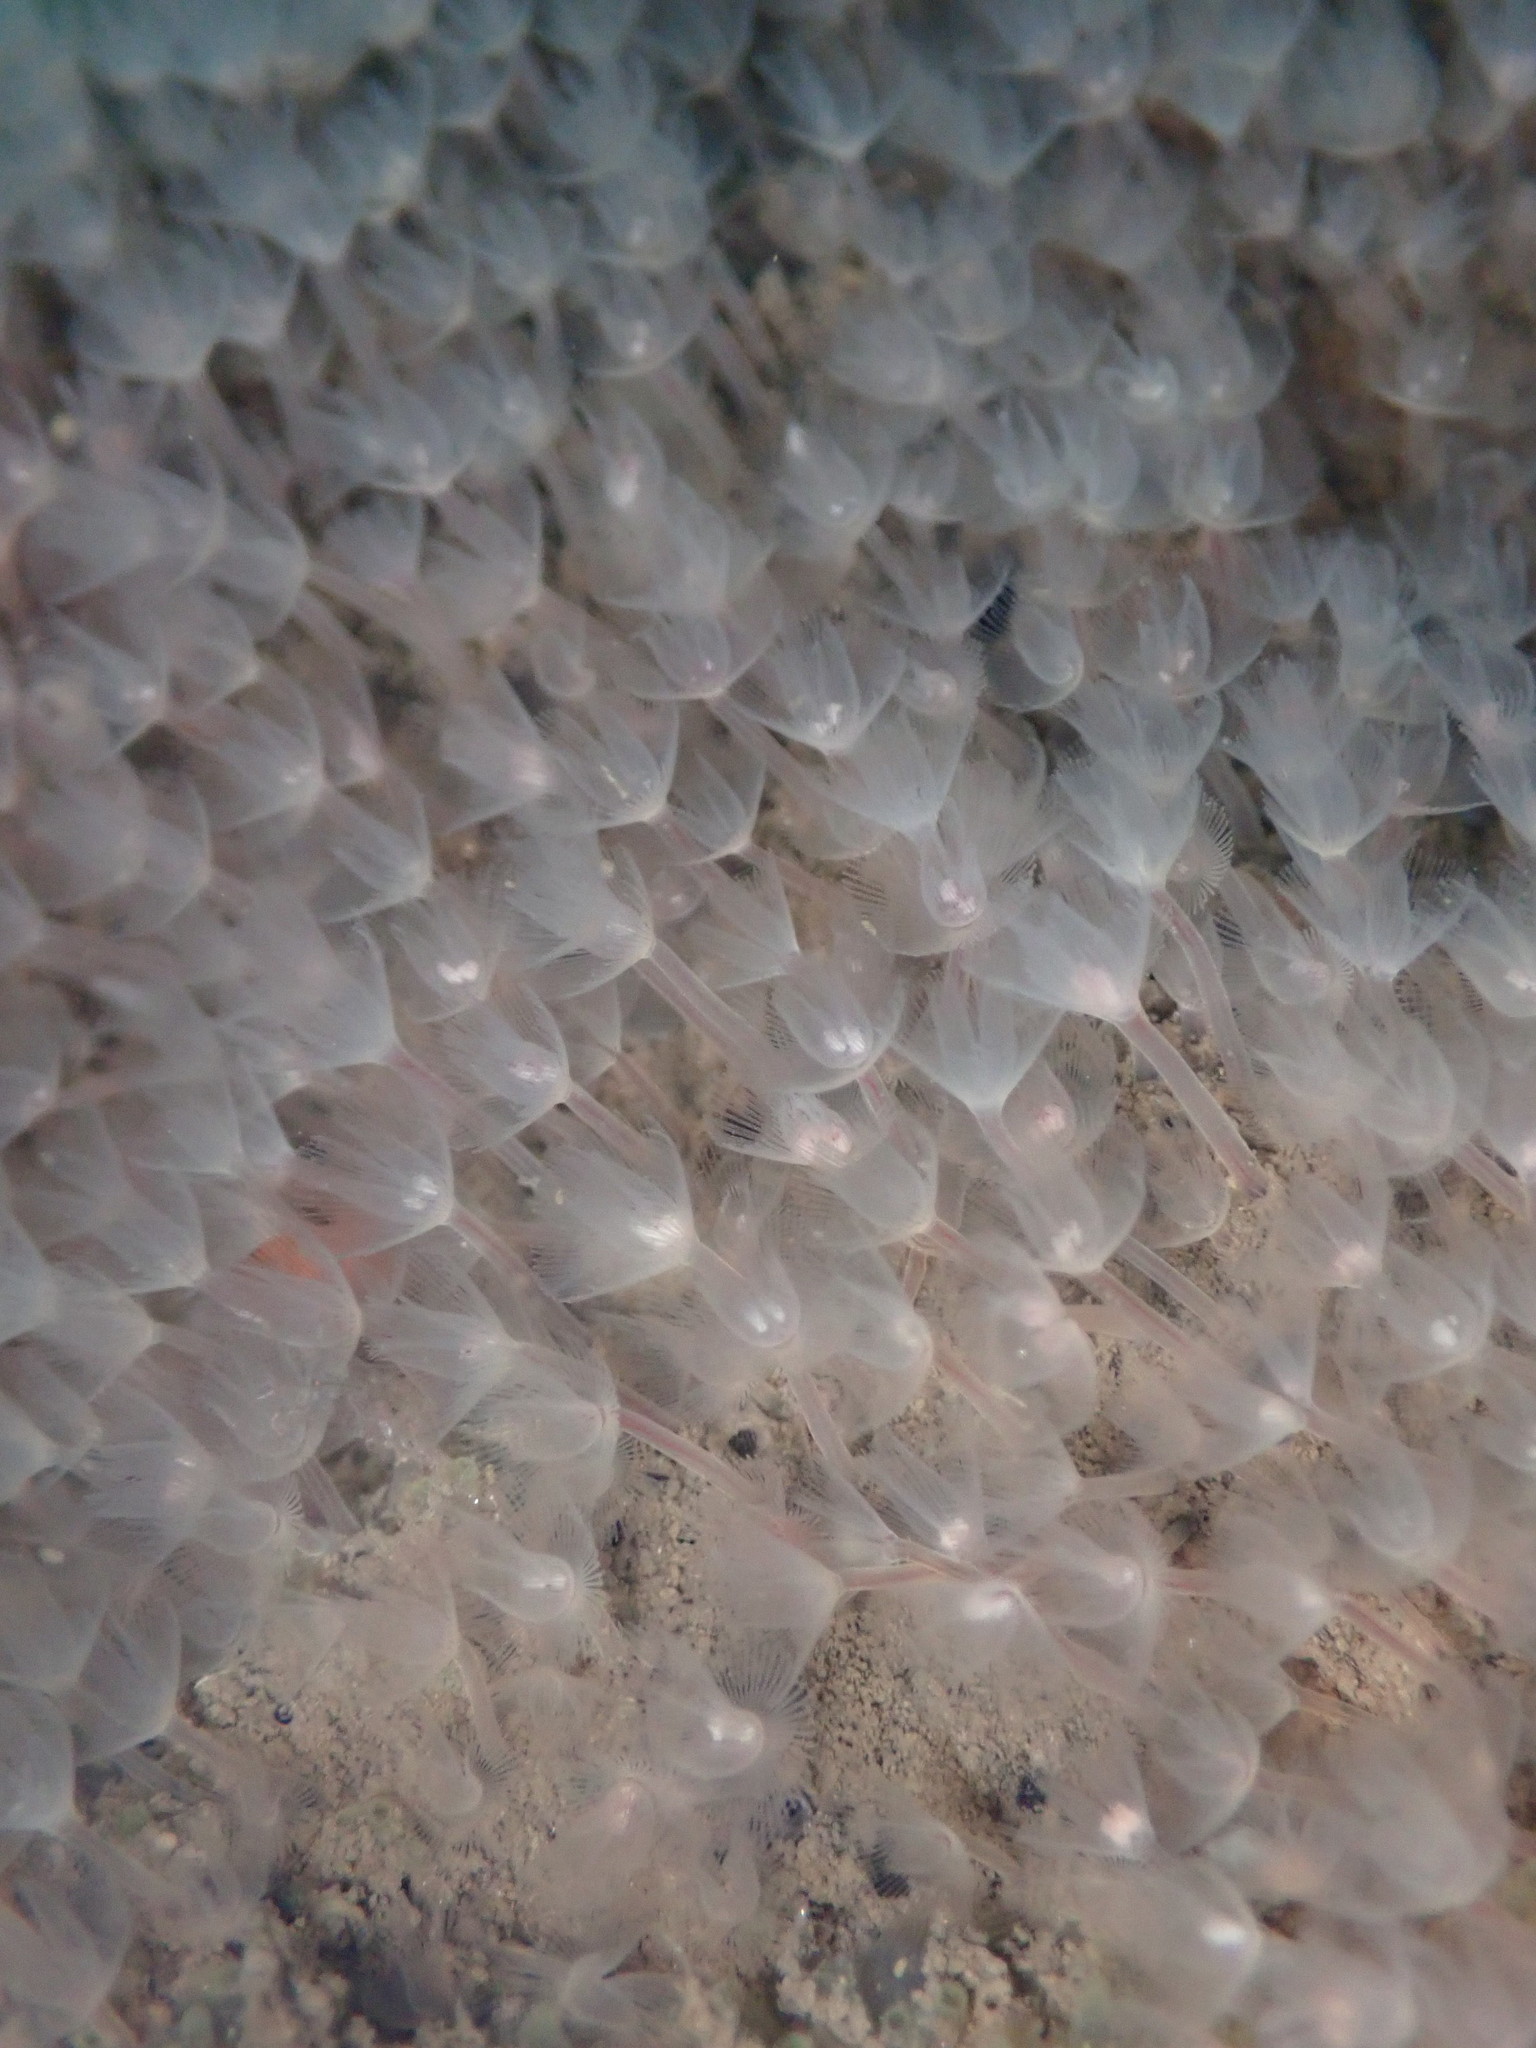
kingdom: Animalia
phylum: Phoronida
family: Phoronidae
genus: Phoronis
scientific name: Phoronis ijimai
